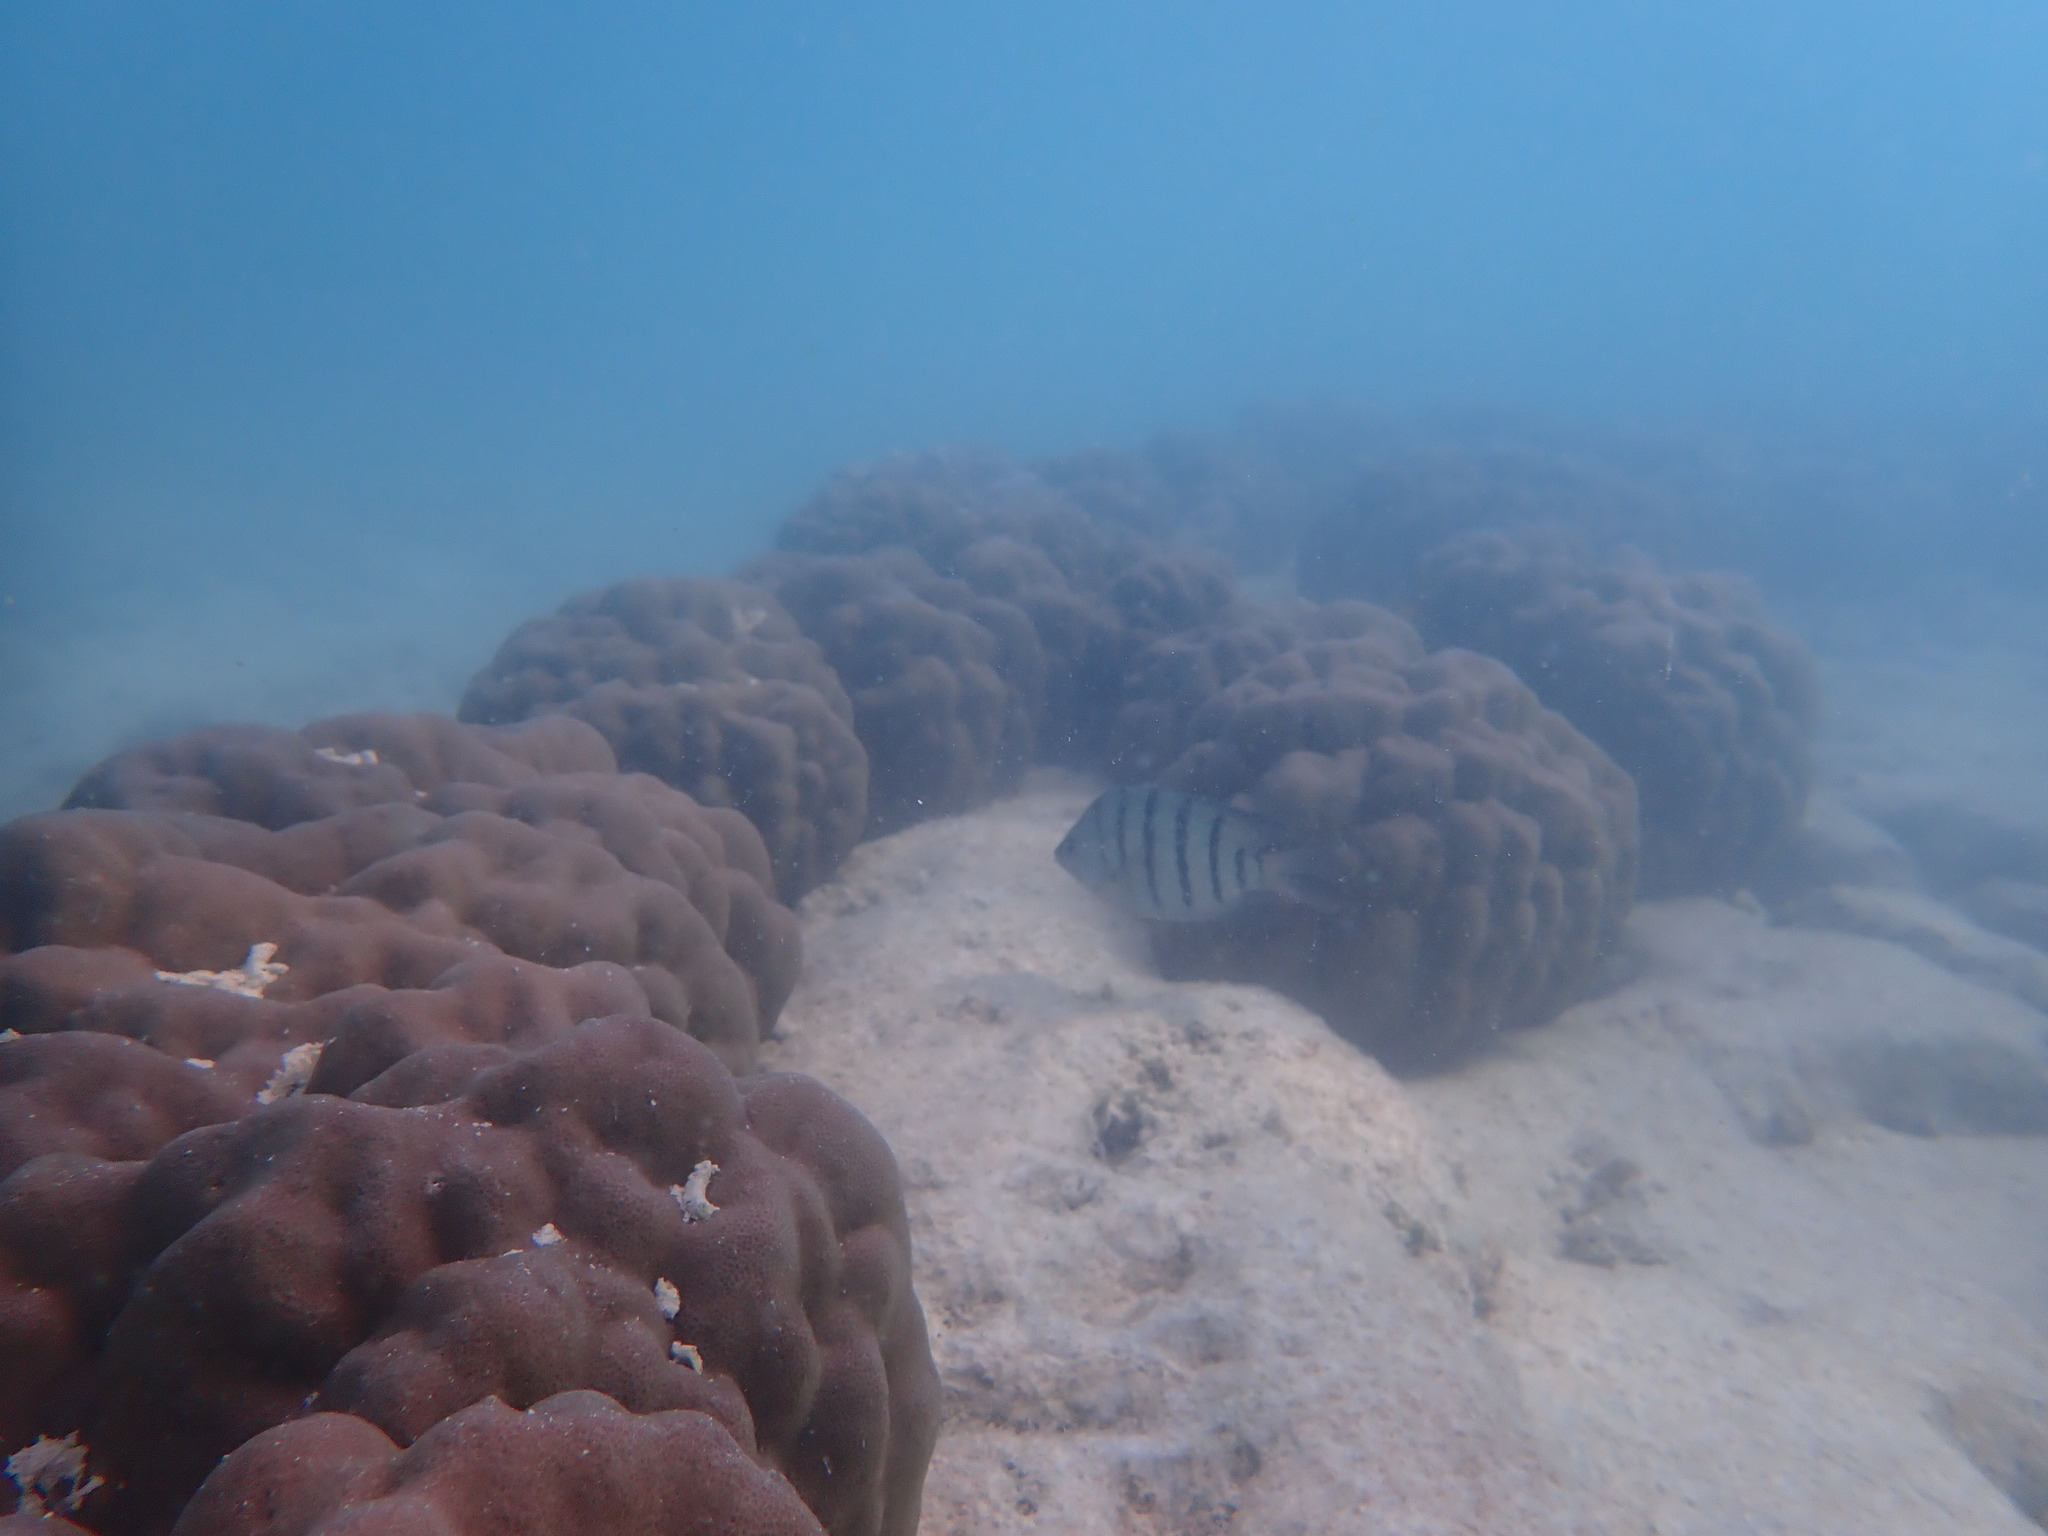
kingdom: Animalia
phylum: Chordata
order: Perciformes
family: Pomacentridae
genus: Abudefduf
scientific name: Abudefduf bengalensis
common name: Bengal sergeant
